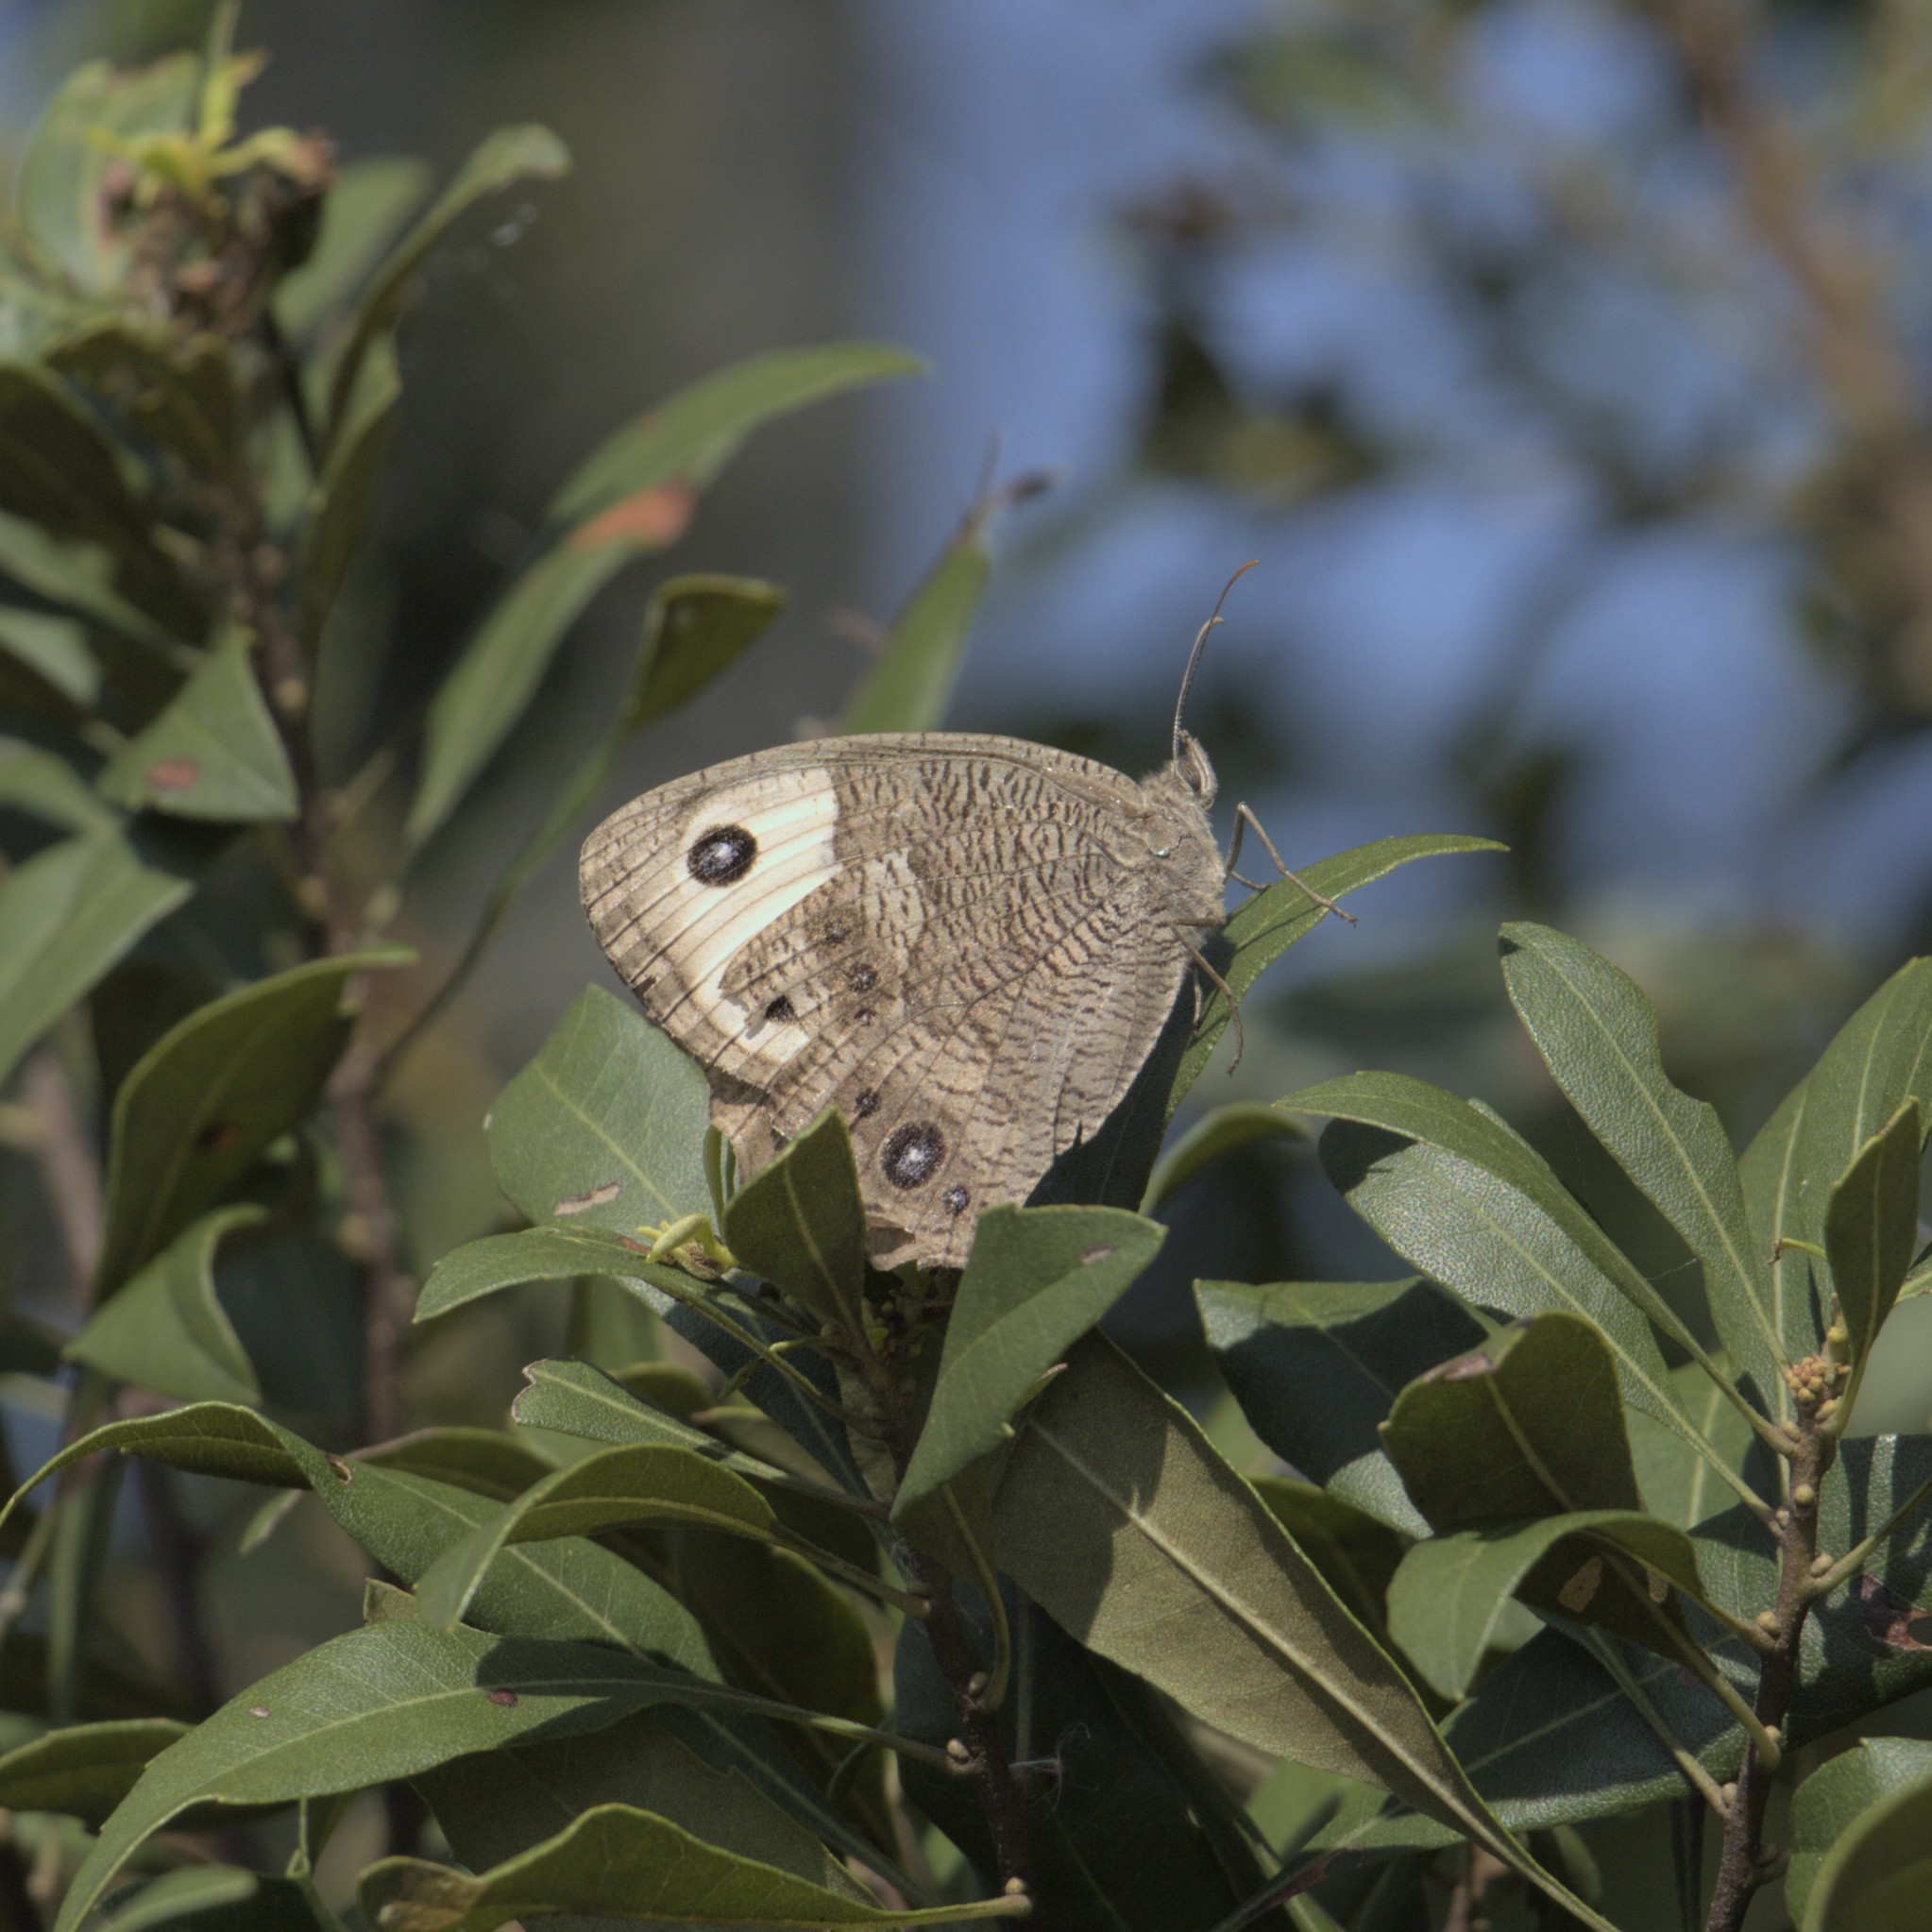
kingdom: Animalia
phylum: Arthropoda
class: Insecta
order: Lepidoptera
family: Nymphalidae
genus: Cercyonis
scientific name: Cercyonis pegala
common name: Common wood-nymph
